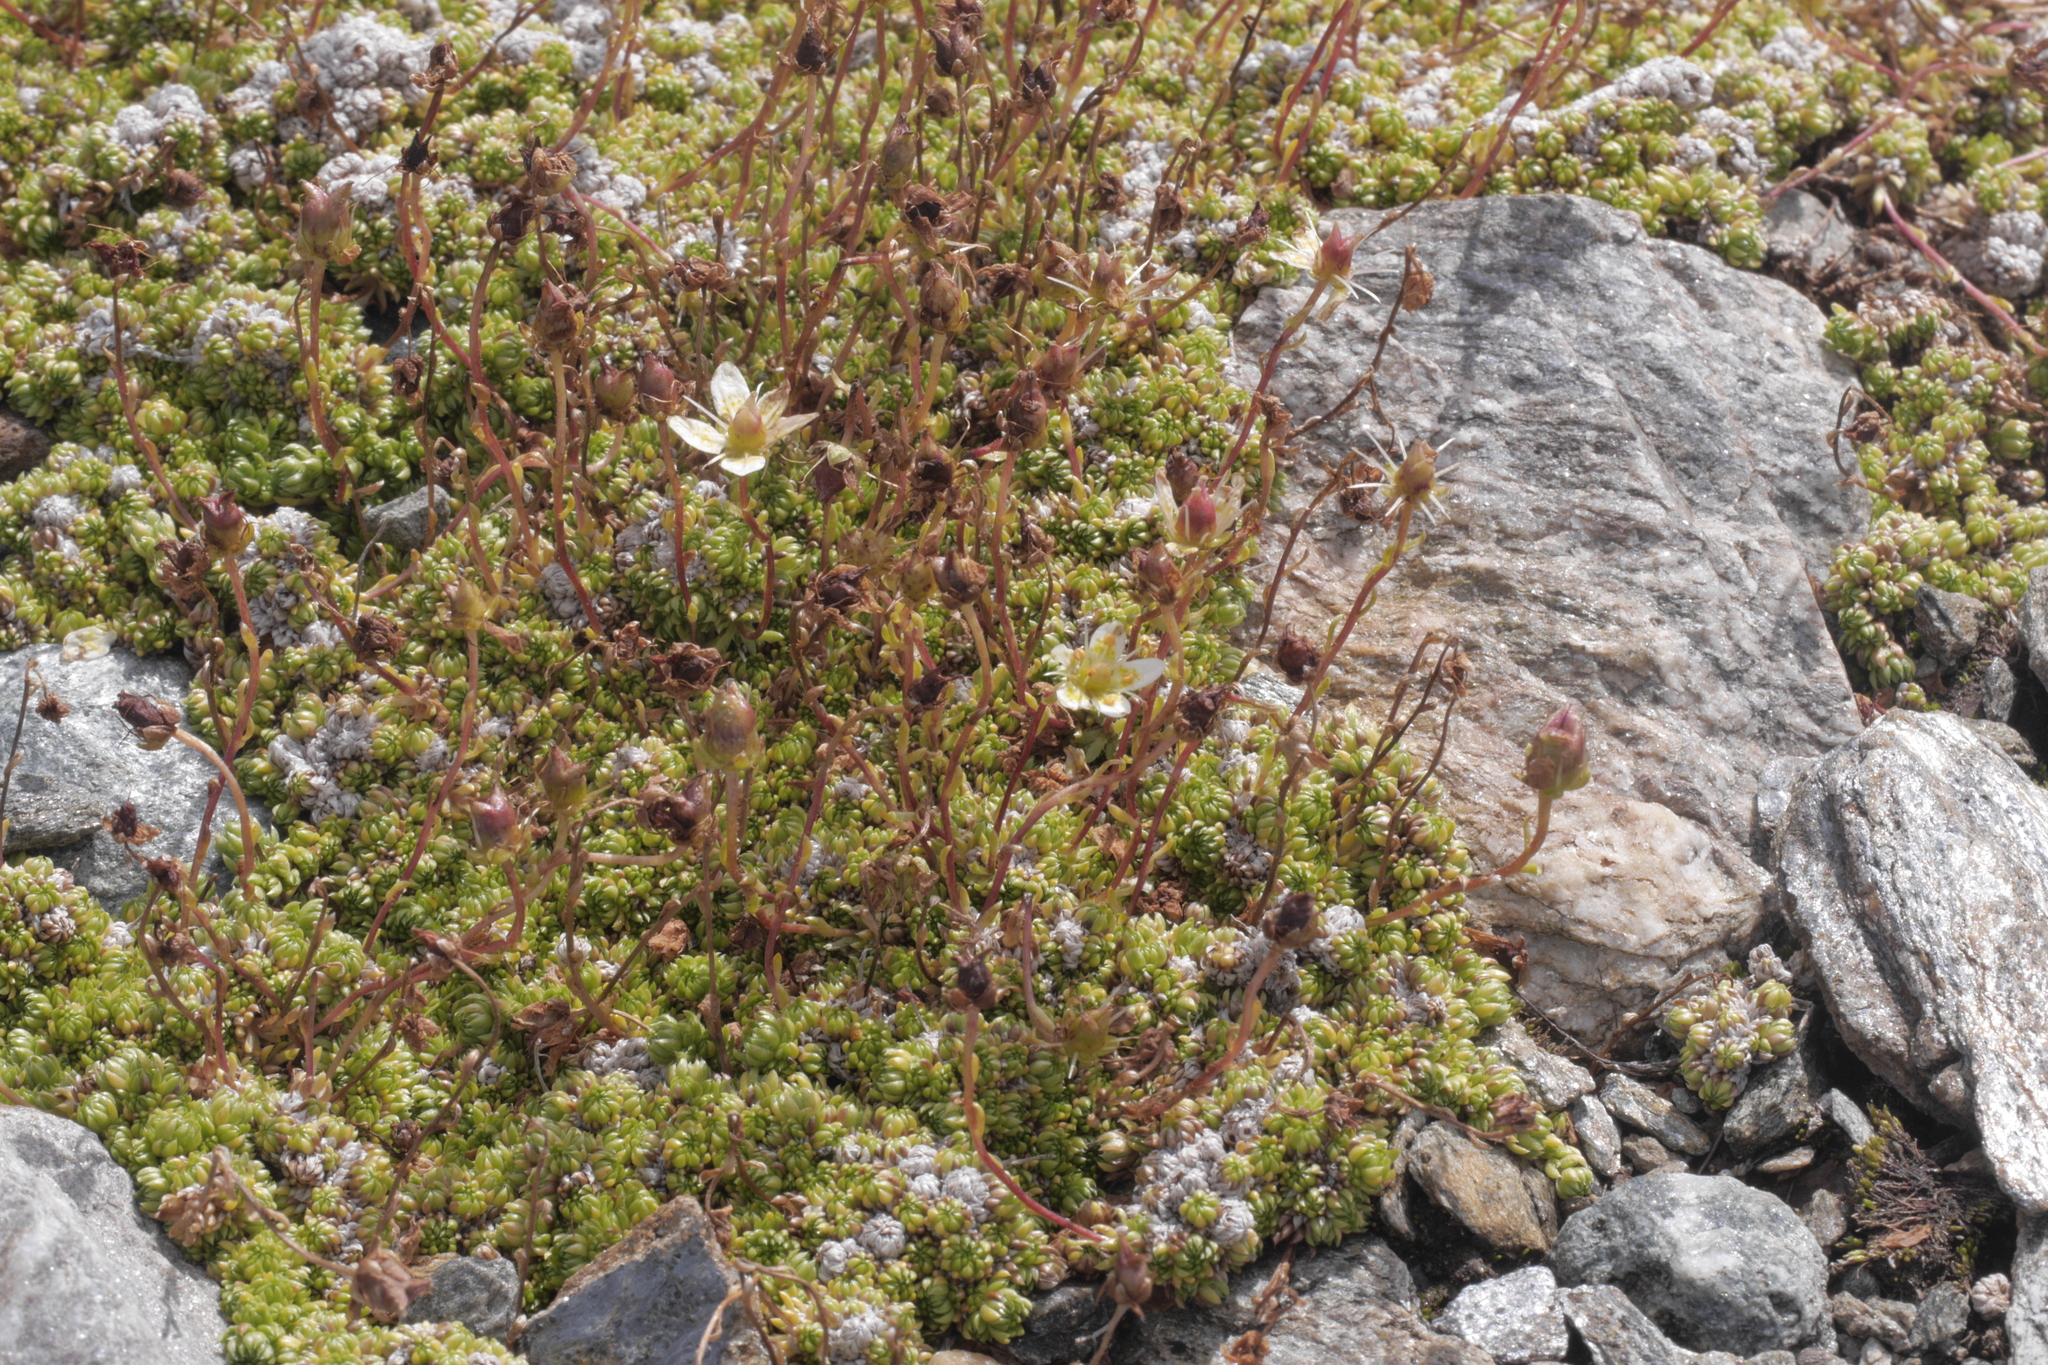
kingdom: Plantae
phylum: Tracheophyta
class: Magnoliopsida
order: Saxifragales
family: Saxifragaceae
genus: Saxifraga
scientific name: Saxifraga bryoides
